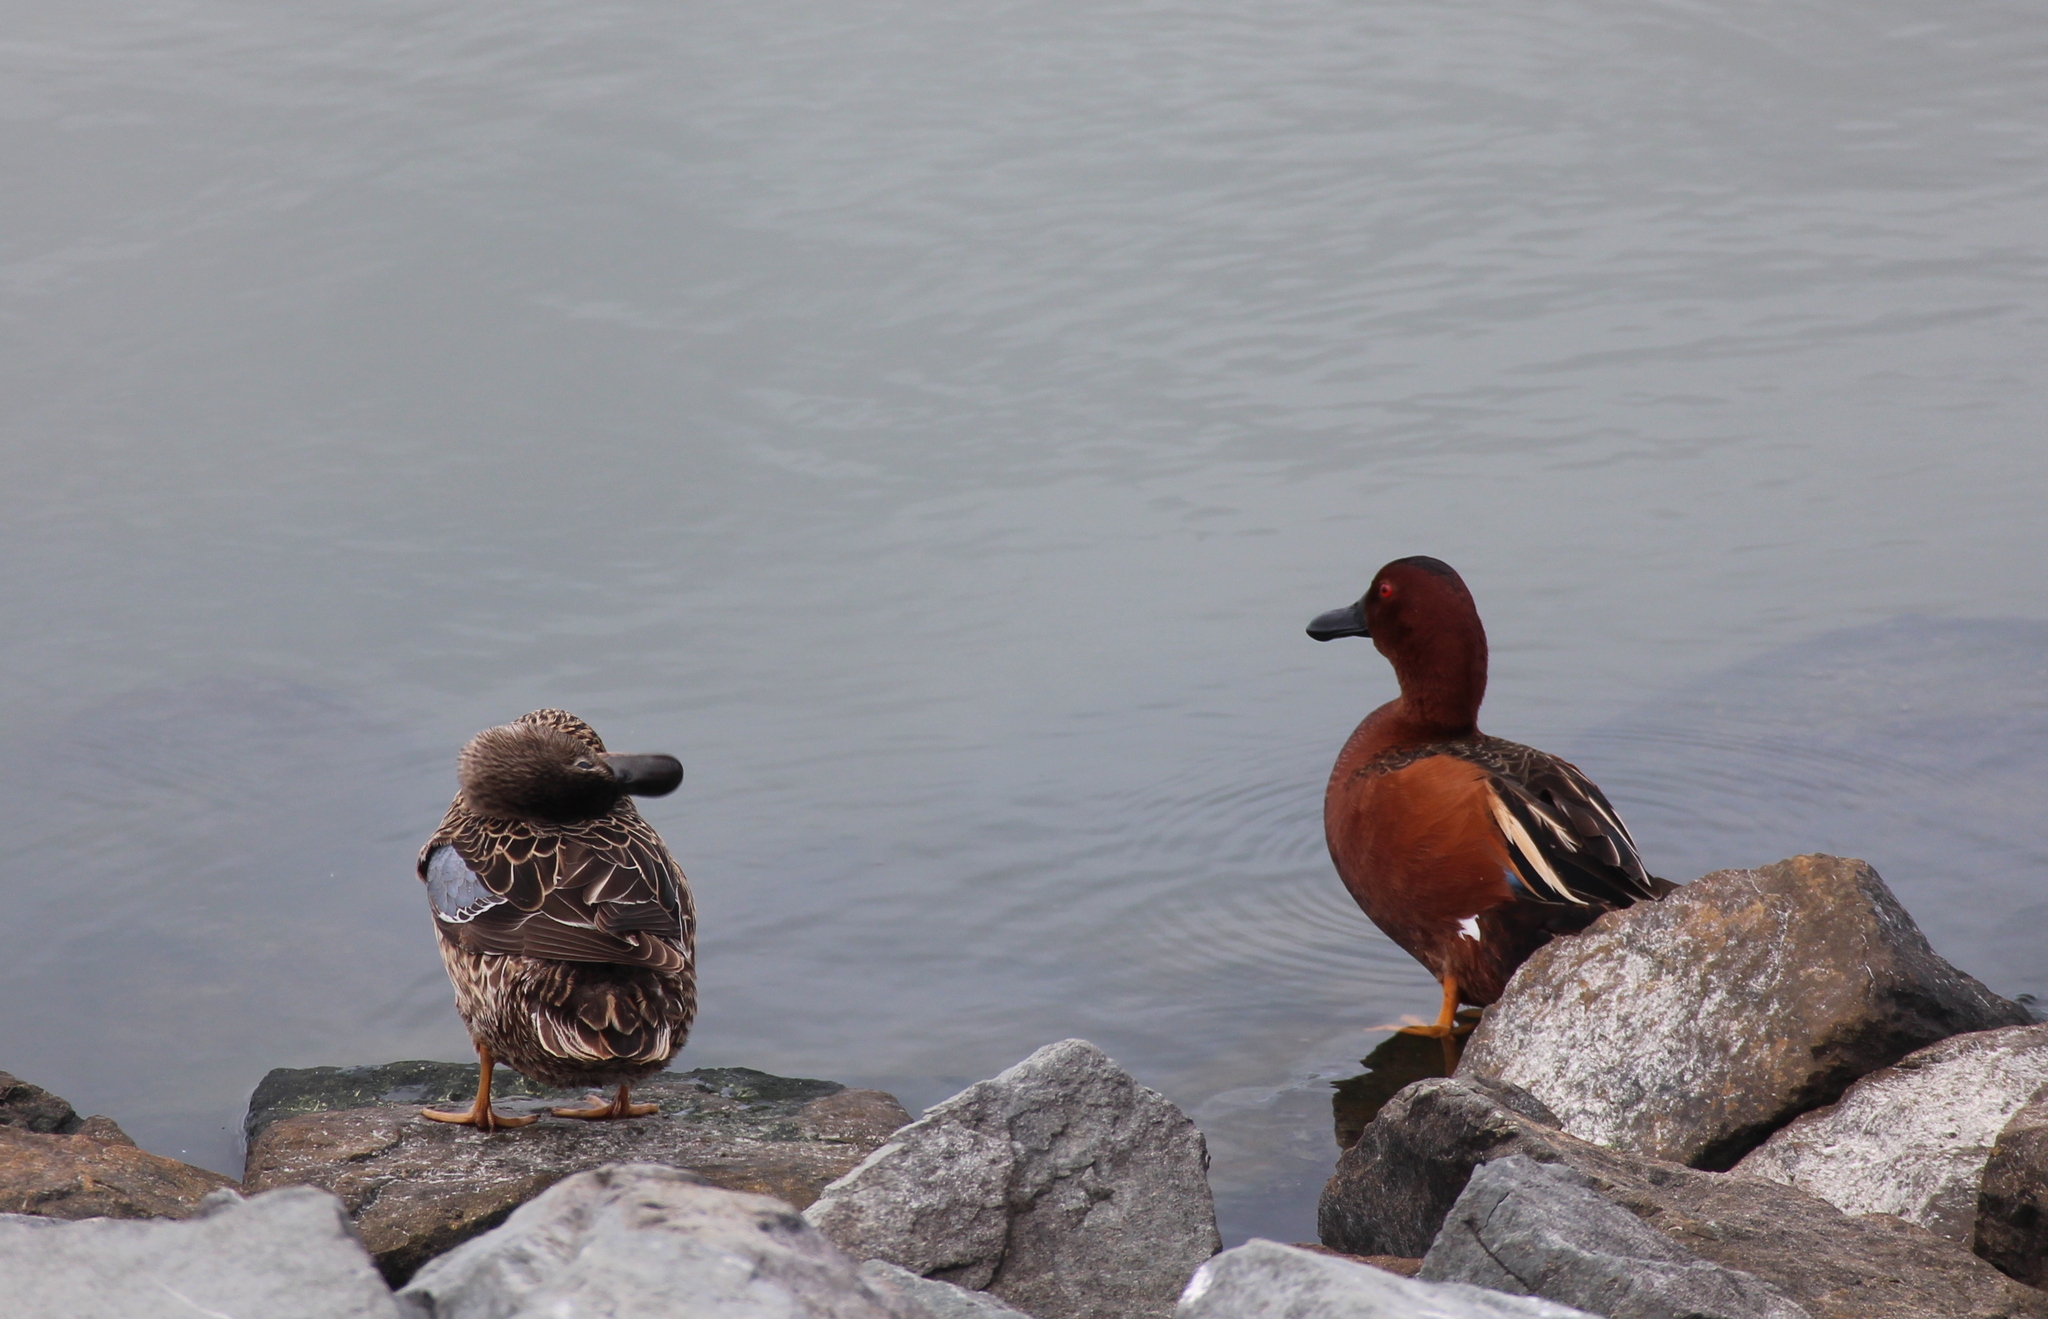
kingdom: Animalia
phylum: Chordata
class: Aves
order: Anseriformes
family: Anatidae
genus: Spatula
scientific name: Spatula cyanoptera
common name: Cinnamon teal
